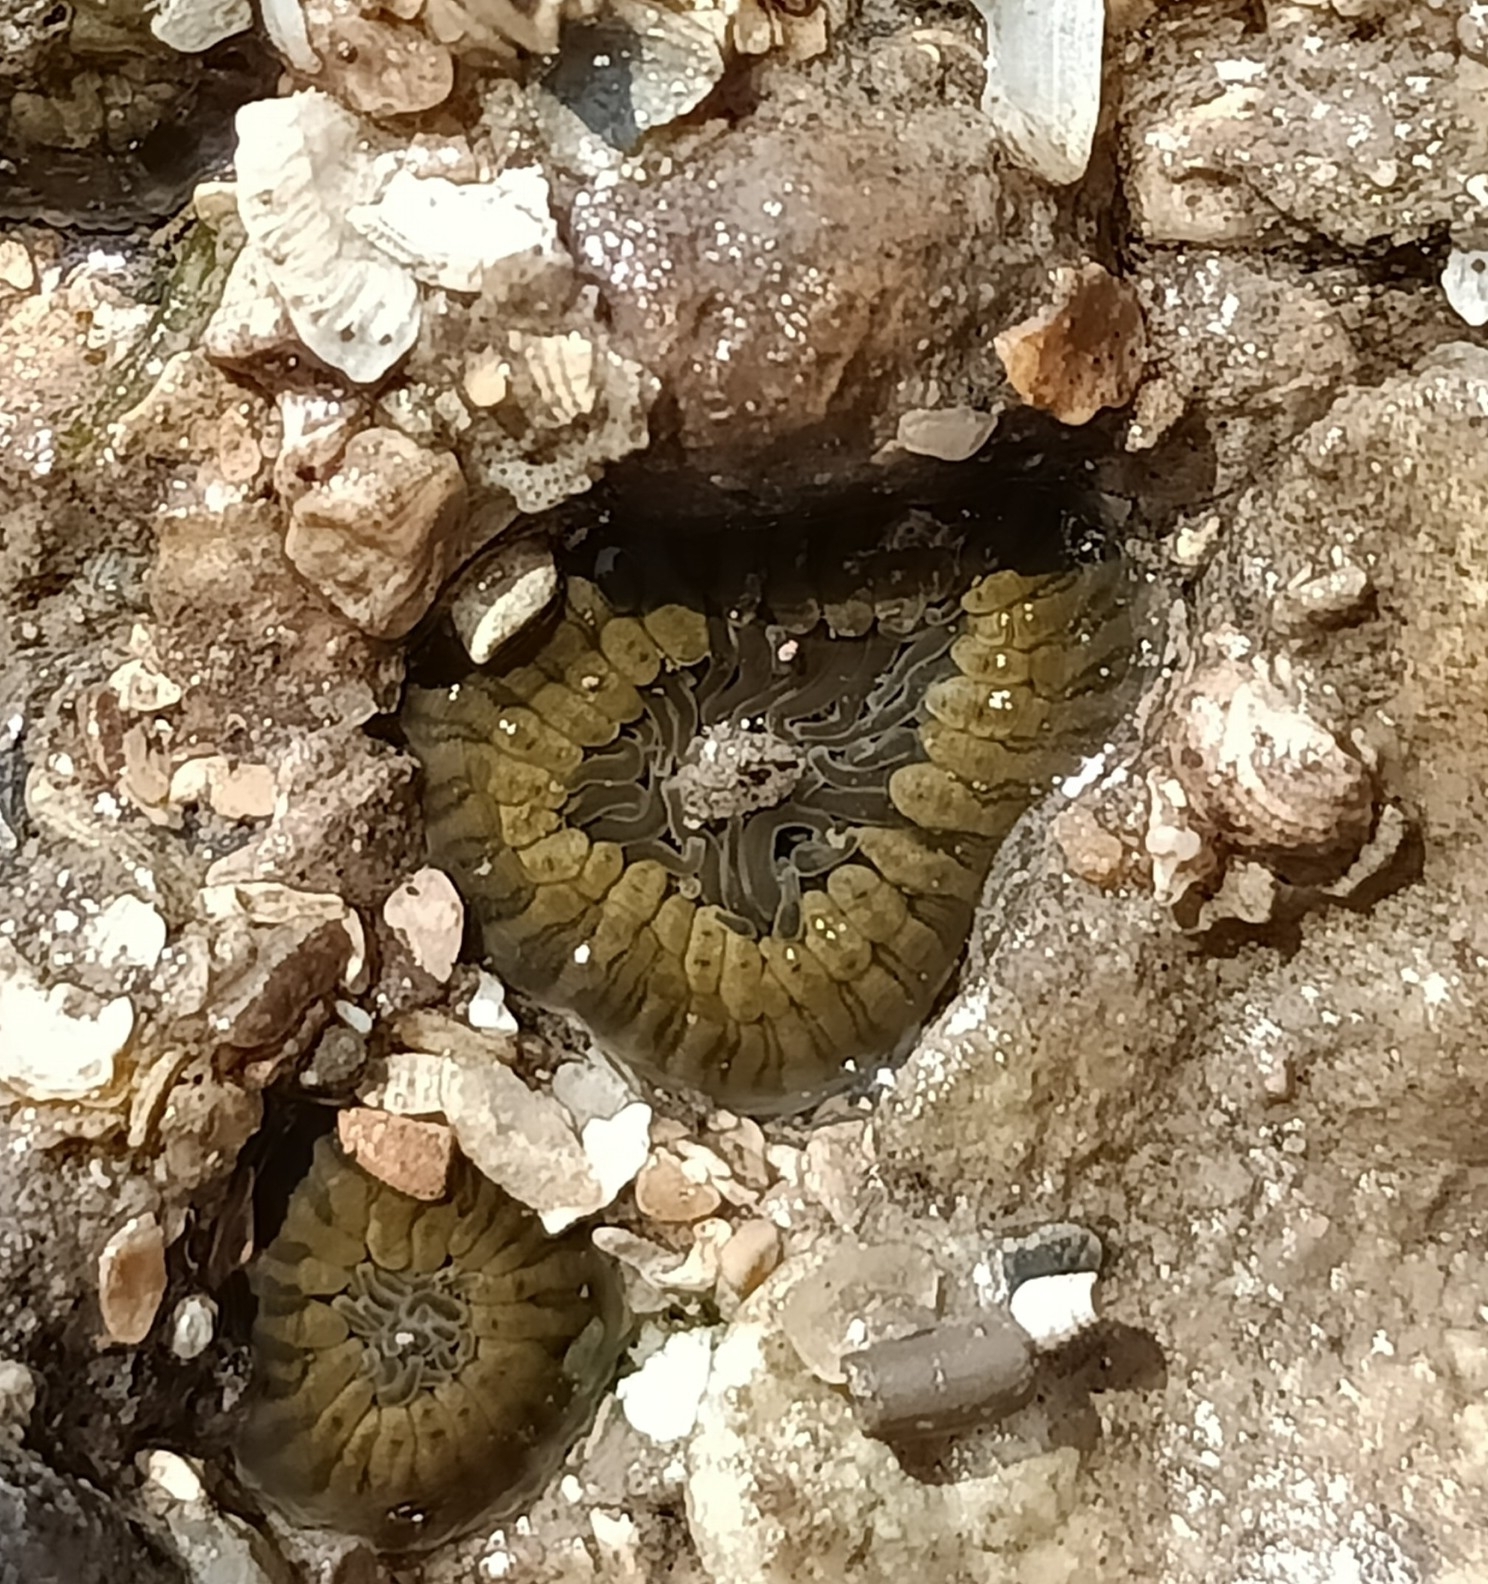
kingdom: Animalia
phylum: Cnidaria
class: Anthozoa
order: Actiniaria
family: Actiniidae
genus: Anthopleura
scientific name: Anthopleura dixoniana
